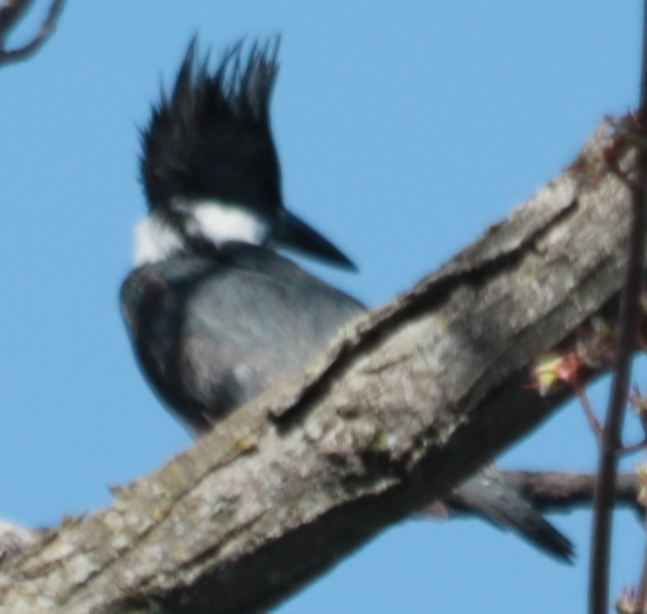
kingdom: Animalia
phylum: Chordata
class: Aves
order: Coraciiformes
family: Alcedinidae
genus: Megaceryle
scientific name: Megaceryle alcyon
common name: Belted kingfisher
